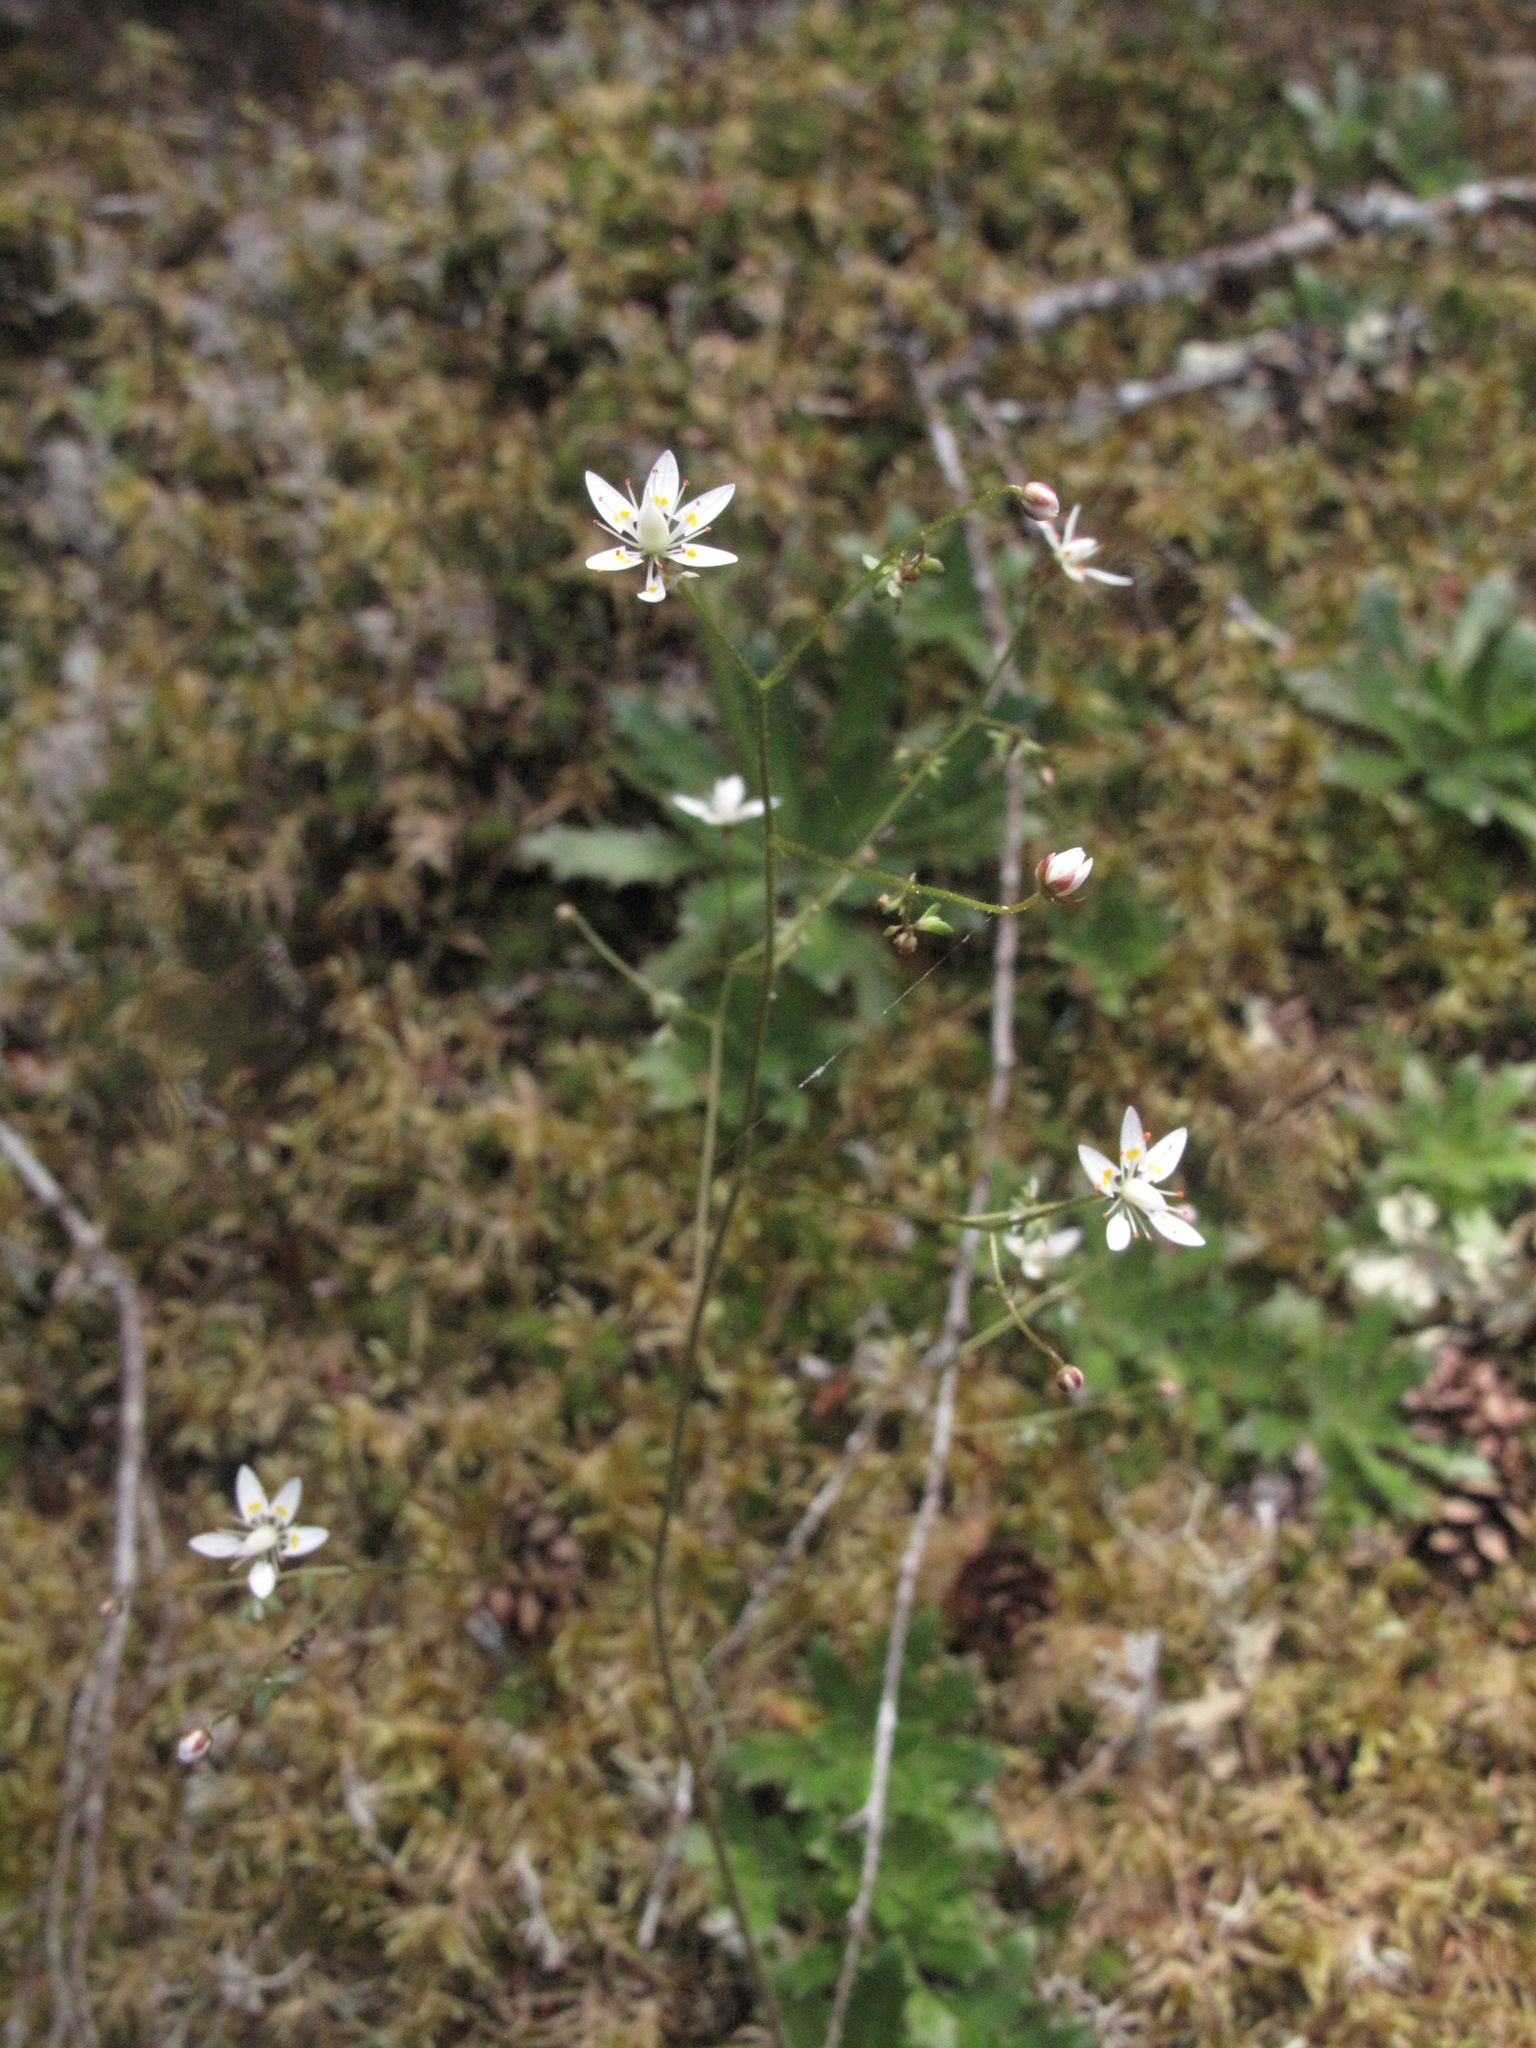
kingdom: Plantae
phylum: Tracheophyta
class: Magnoliopsida
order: Saxifragales
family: Saxifragaceae
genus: Micranthes
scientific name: Micranthes ferruginea
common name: Rusty saxifrage
